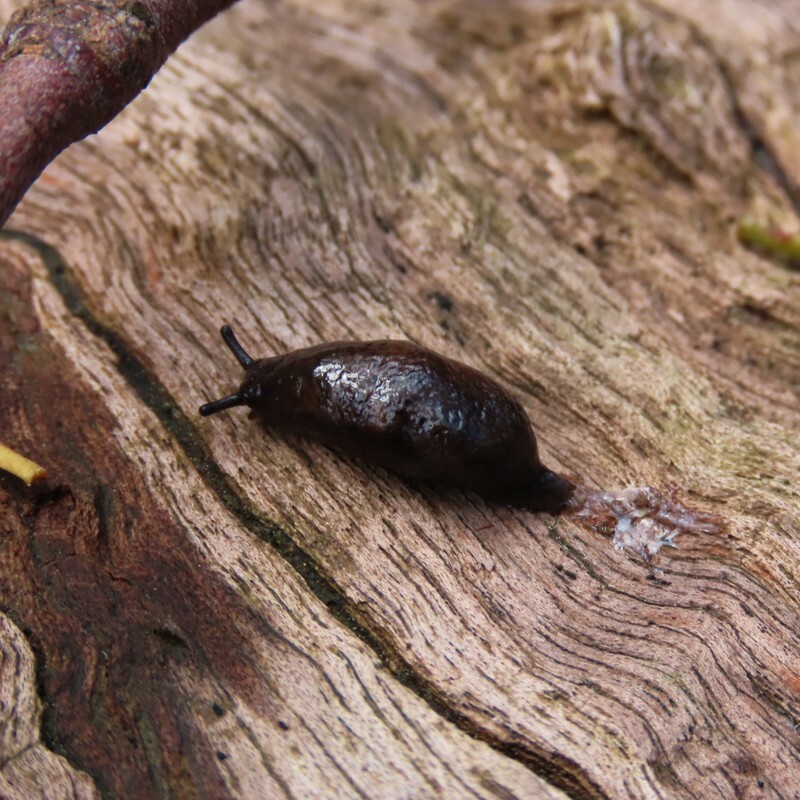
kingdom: Animalia
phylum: Mollusca
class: Gastropoda
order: Stylommatophora
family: Cystopeltidae
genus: Cystopelta
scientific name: Cystopelta
